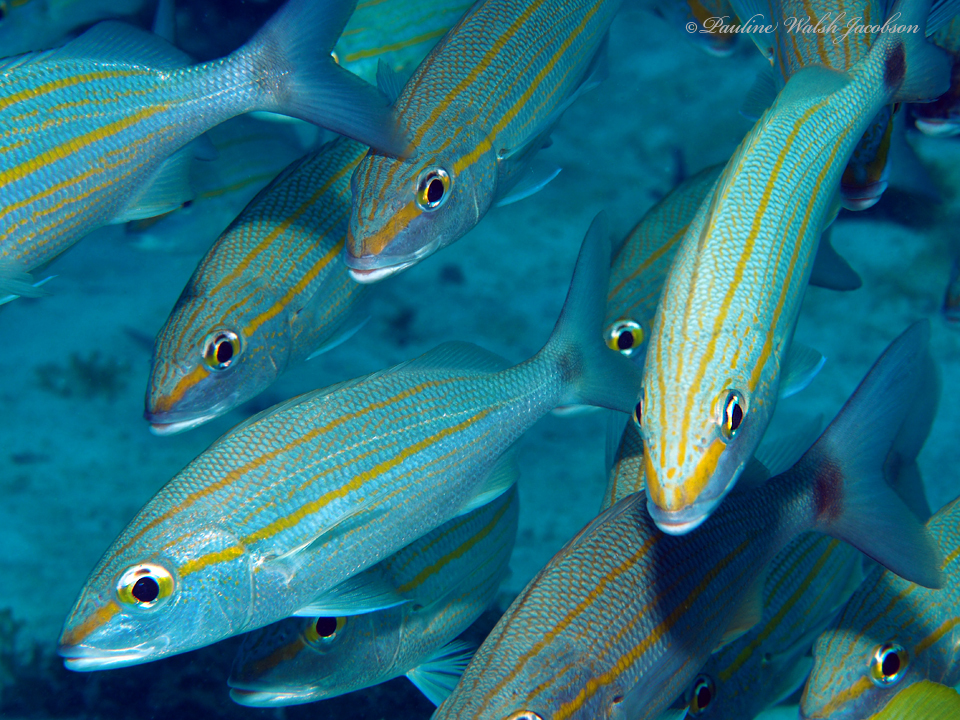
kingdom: Animalia
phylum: Chordata
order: Perciformes
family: Haemulidae
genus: Haemulon
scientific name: Haemulon aurolineatum
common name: Tomtate
